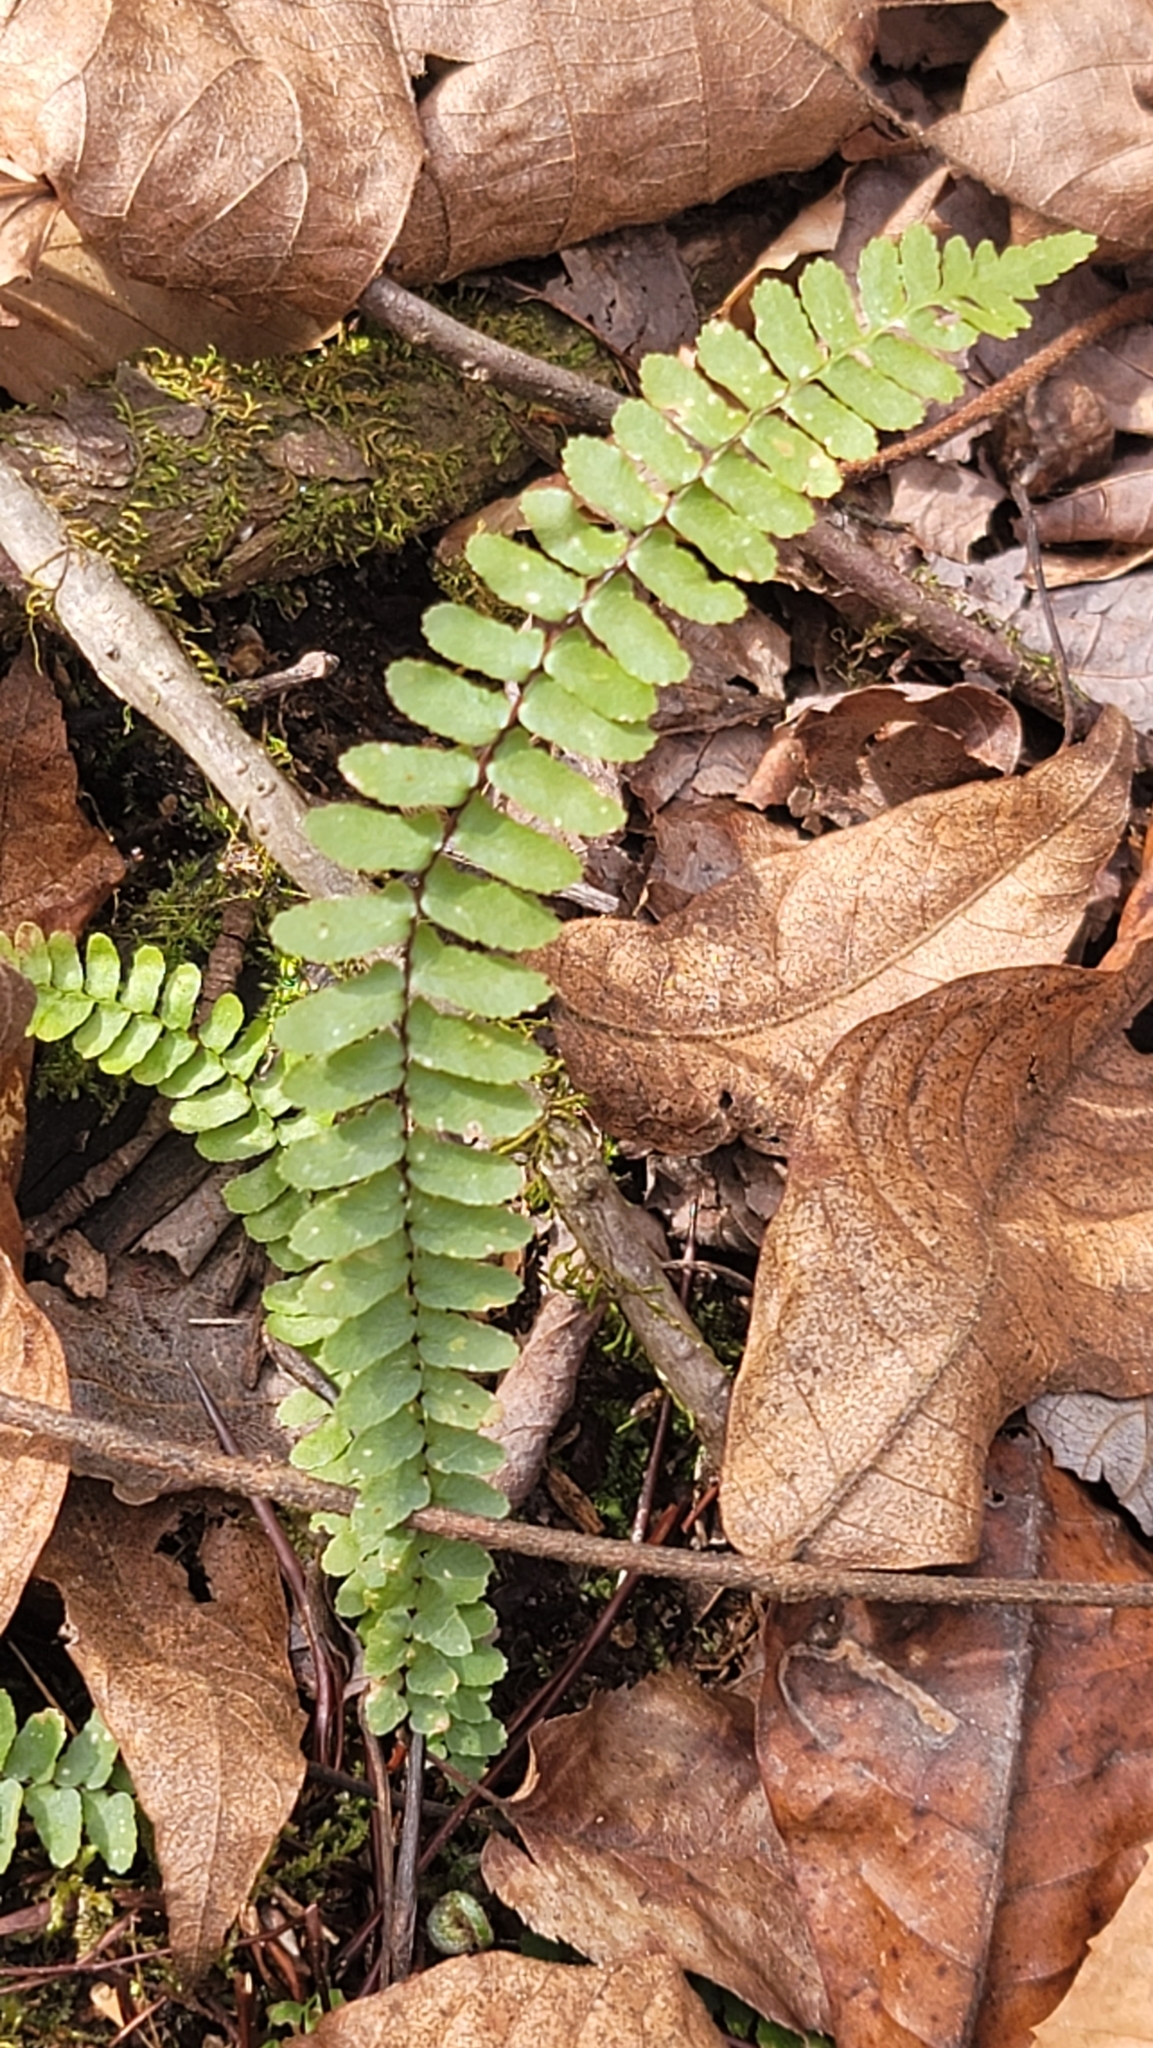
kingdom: Plantae
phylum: Tracheophyta
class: Polypodiopsida
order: Polypodiales
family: Aspleniaceae
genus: Asplenium
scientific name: Asplenium platyneuron
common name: Ebony spleenwort
